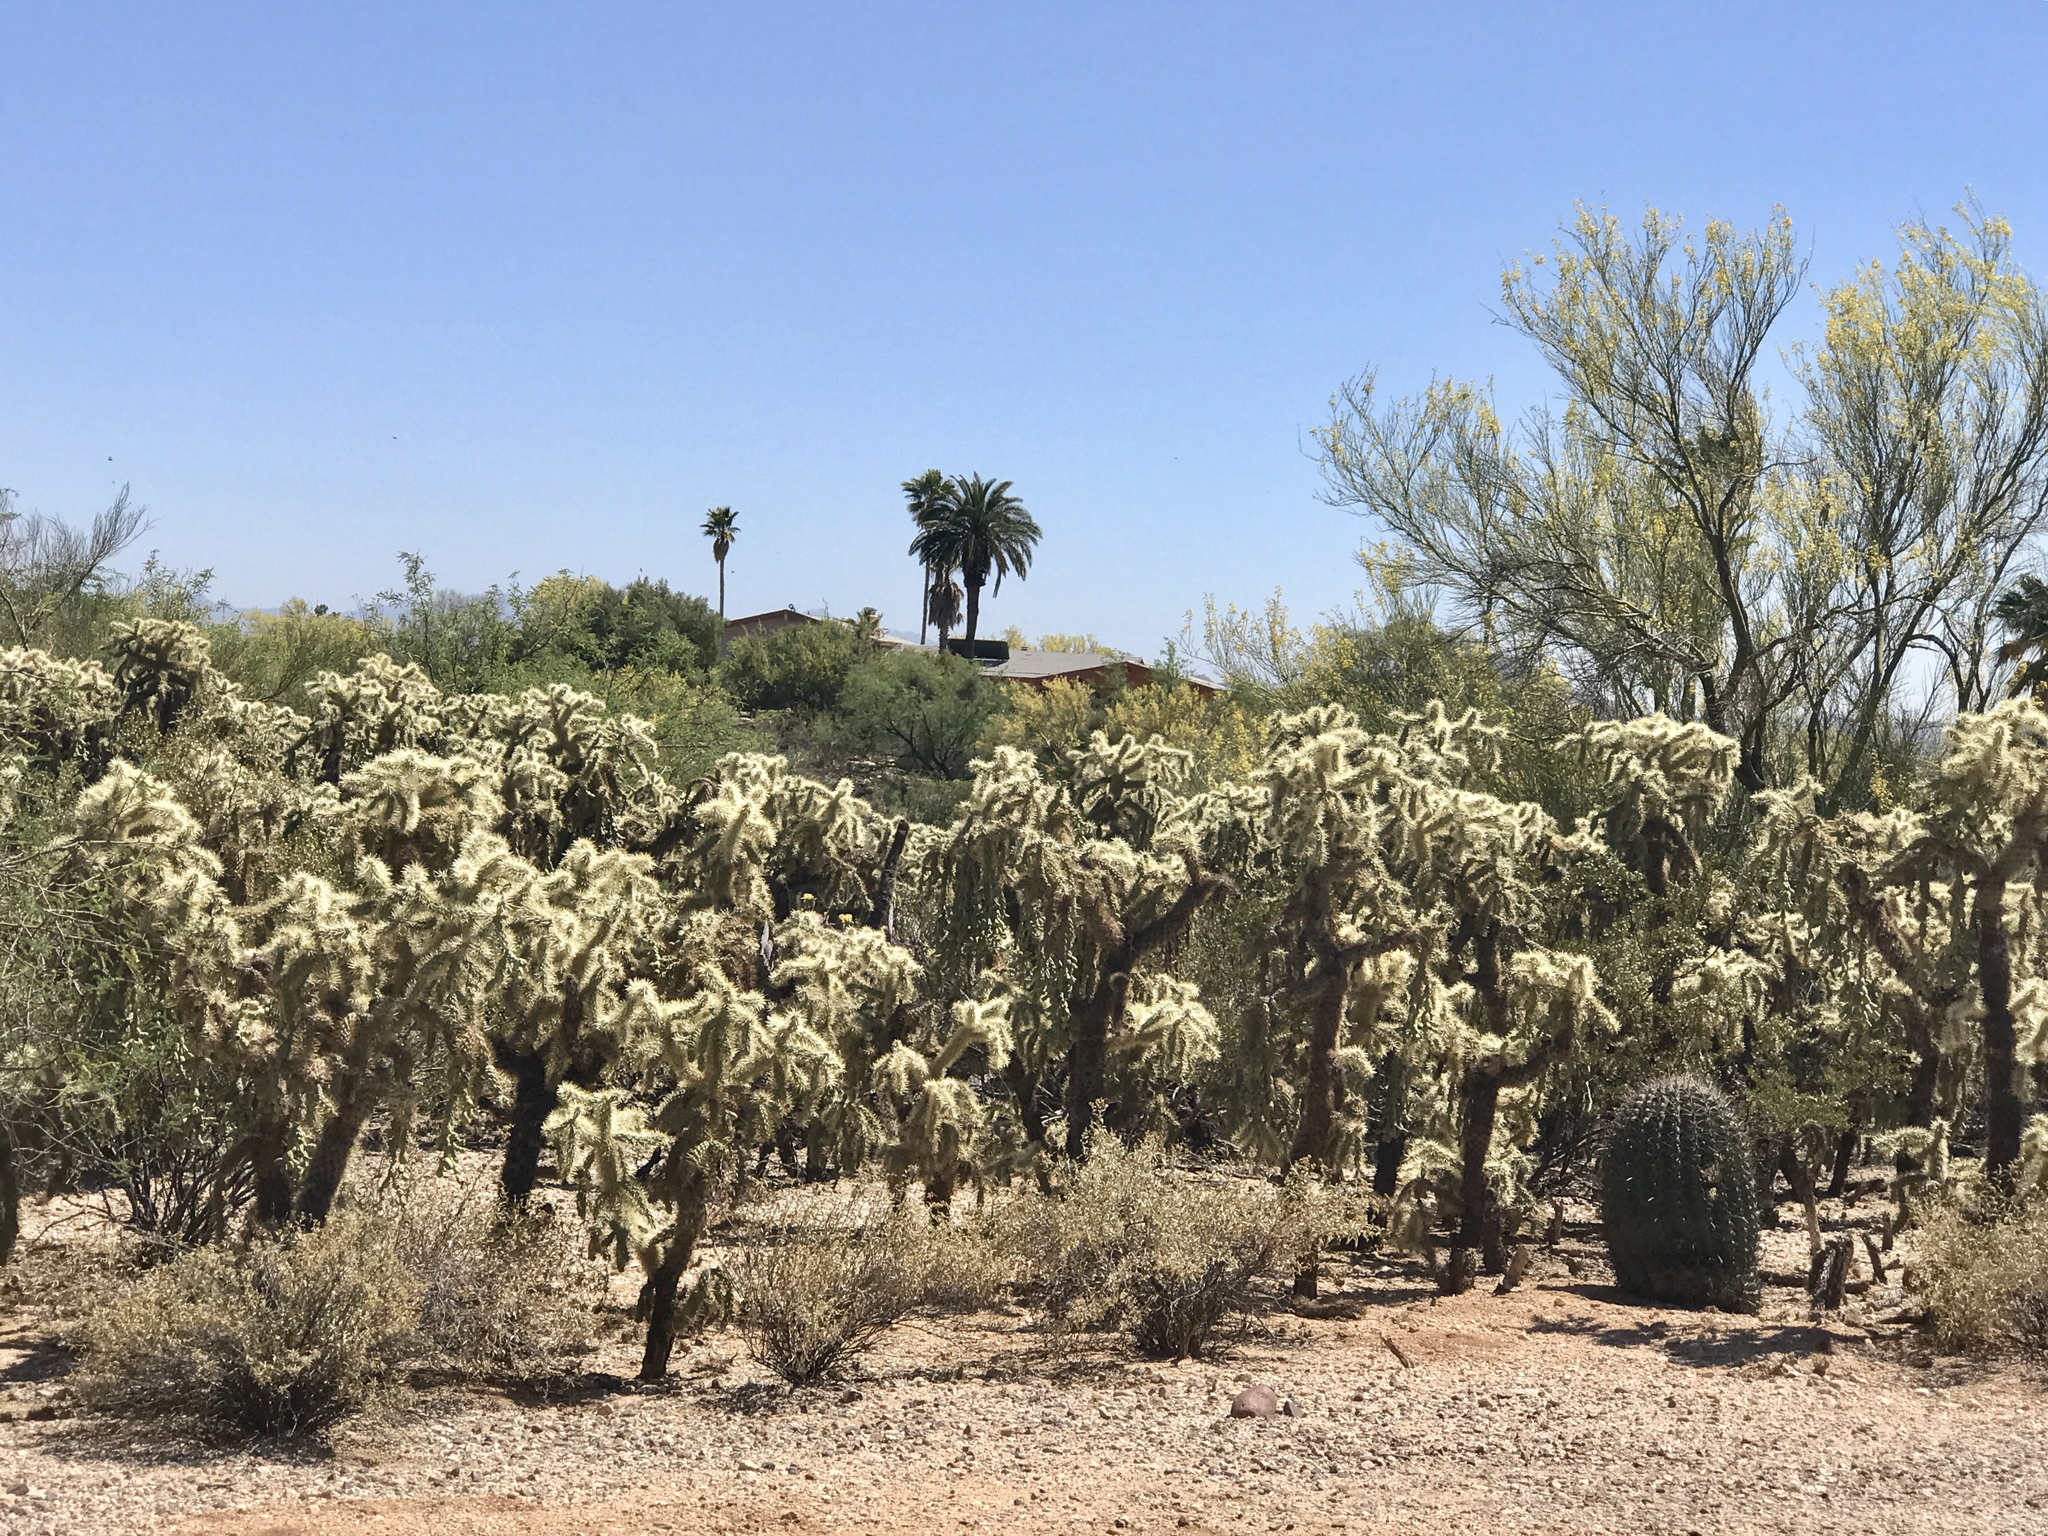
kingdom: Plantae
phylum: Tracheophyta
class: Magnoliopsida
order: Caryophyllales
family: Cactaceae
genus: Cylindropuntia
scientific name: Cylindropuntia fulgida
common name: Jumping cholla
